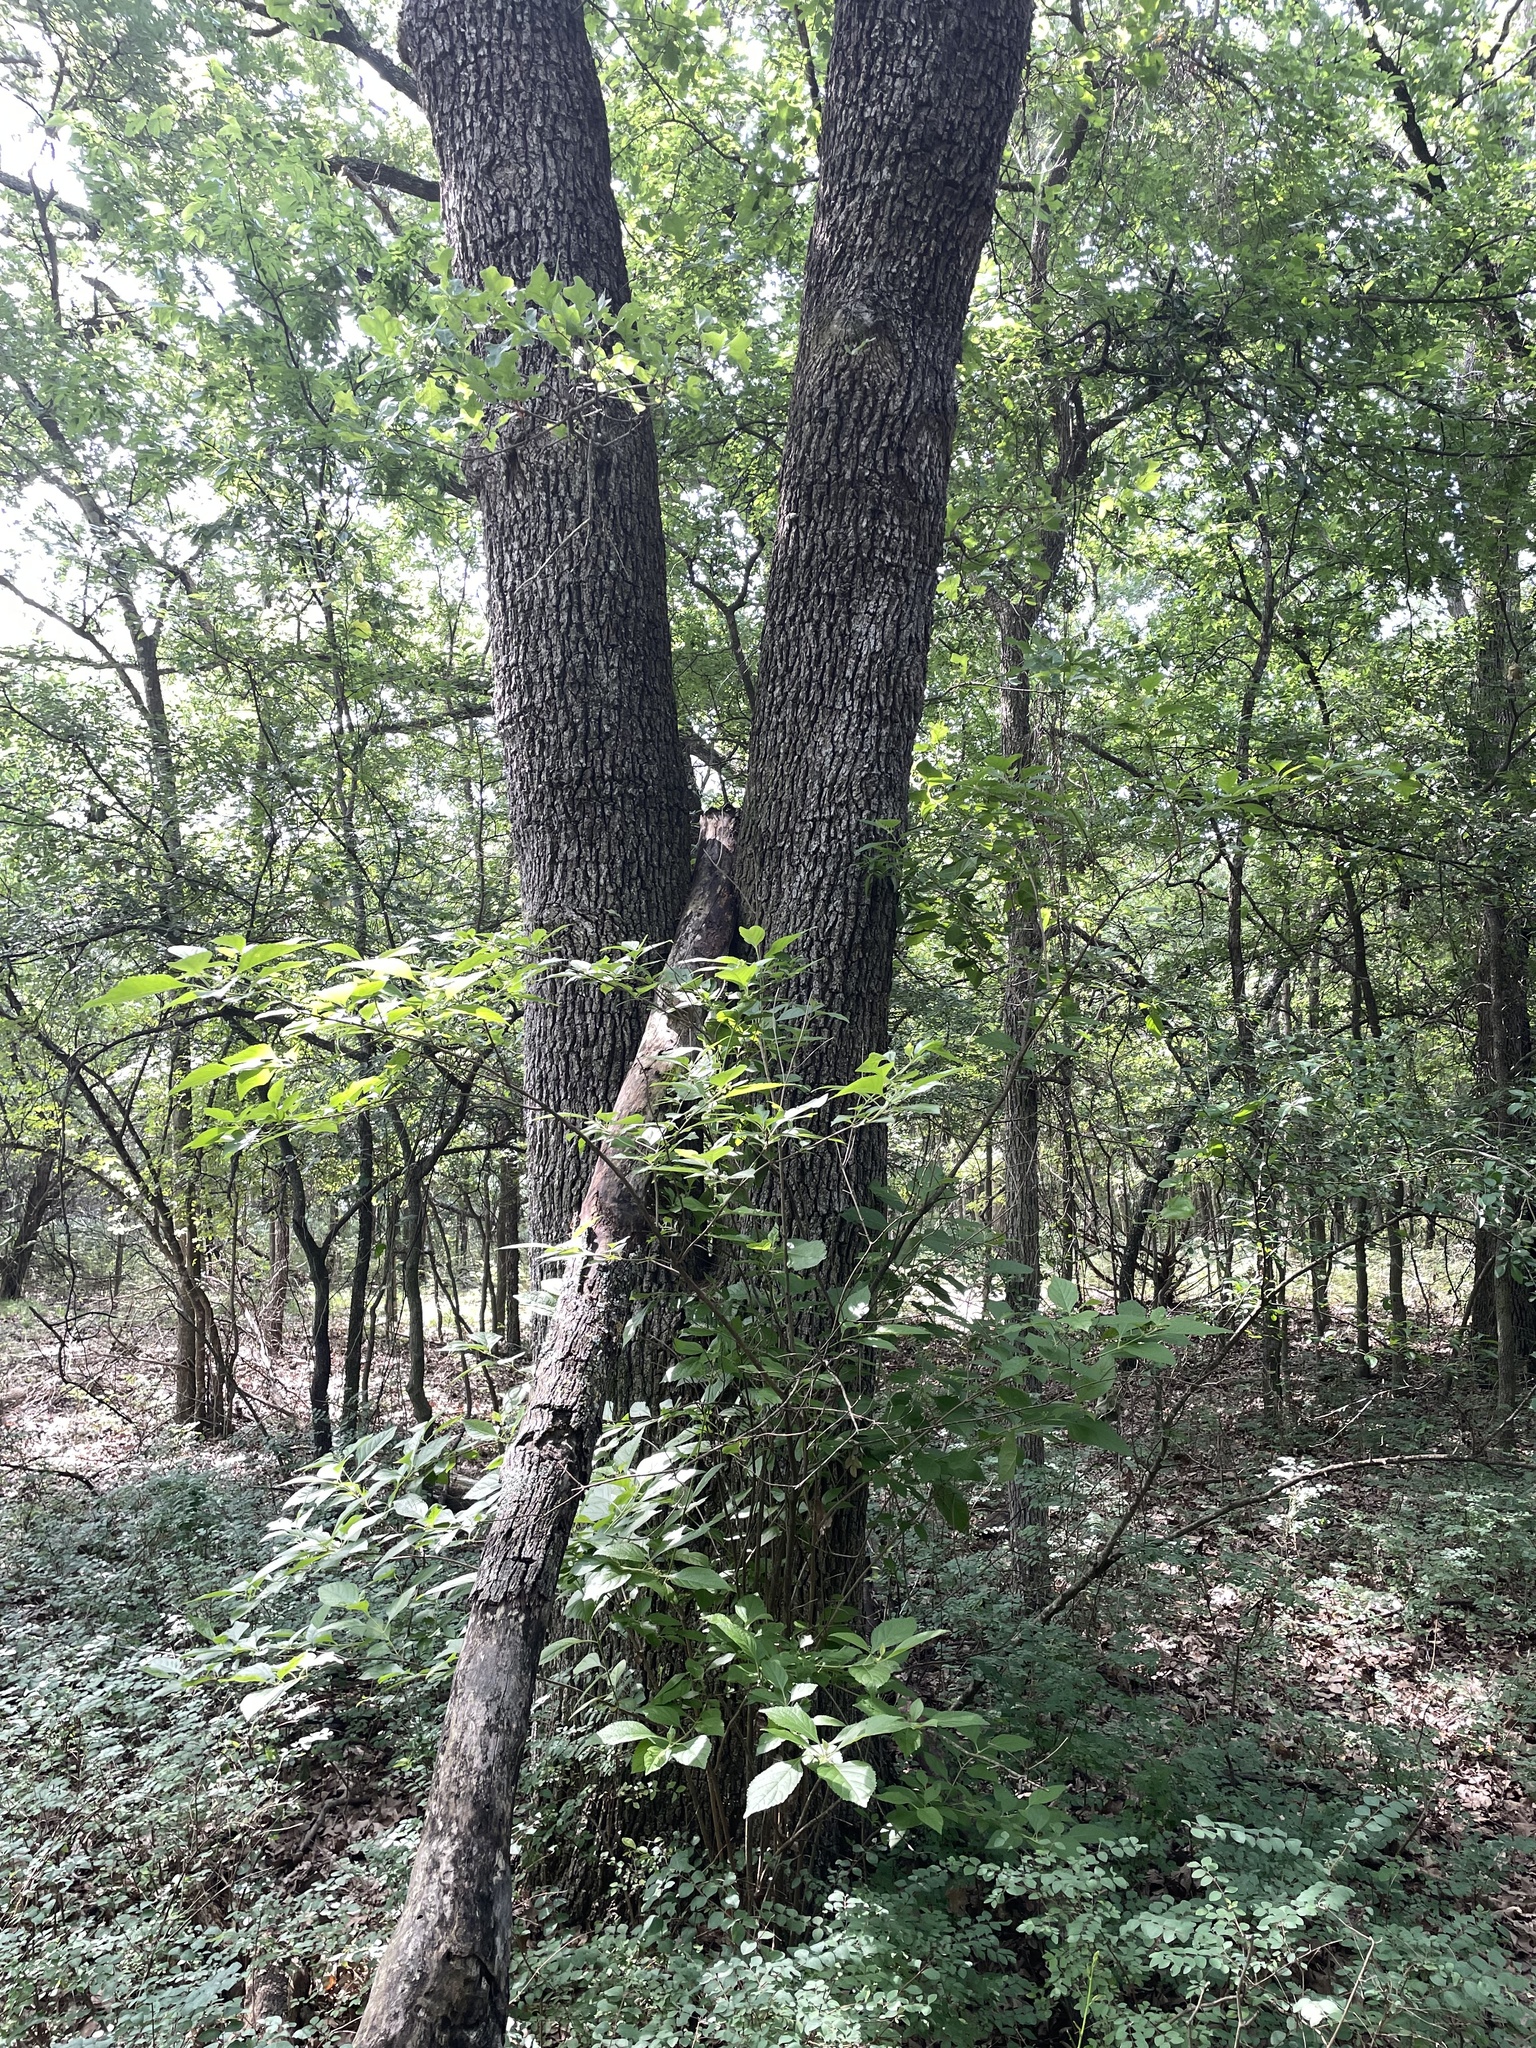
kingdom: Plantae
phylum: Tracheophyta
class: Magnoliopsida
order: Fagales
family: Fagaceae
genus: Quercus
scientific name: Quercus stellata
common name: Post oak
